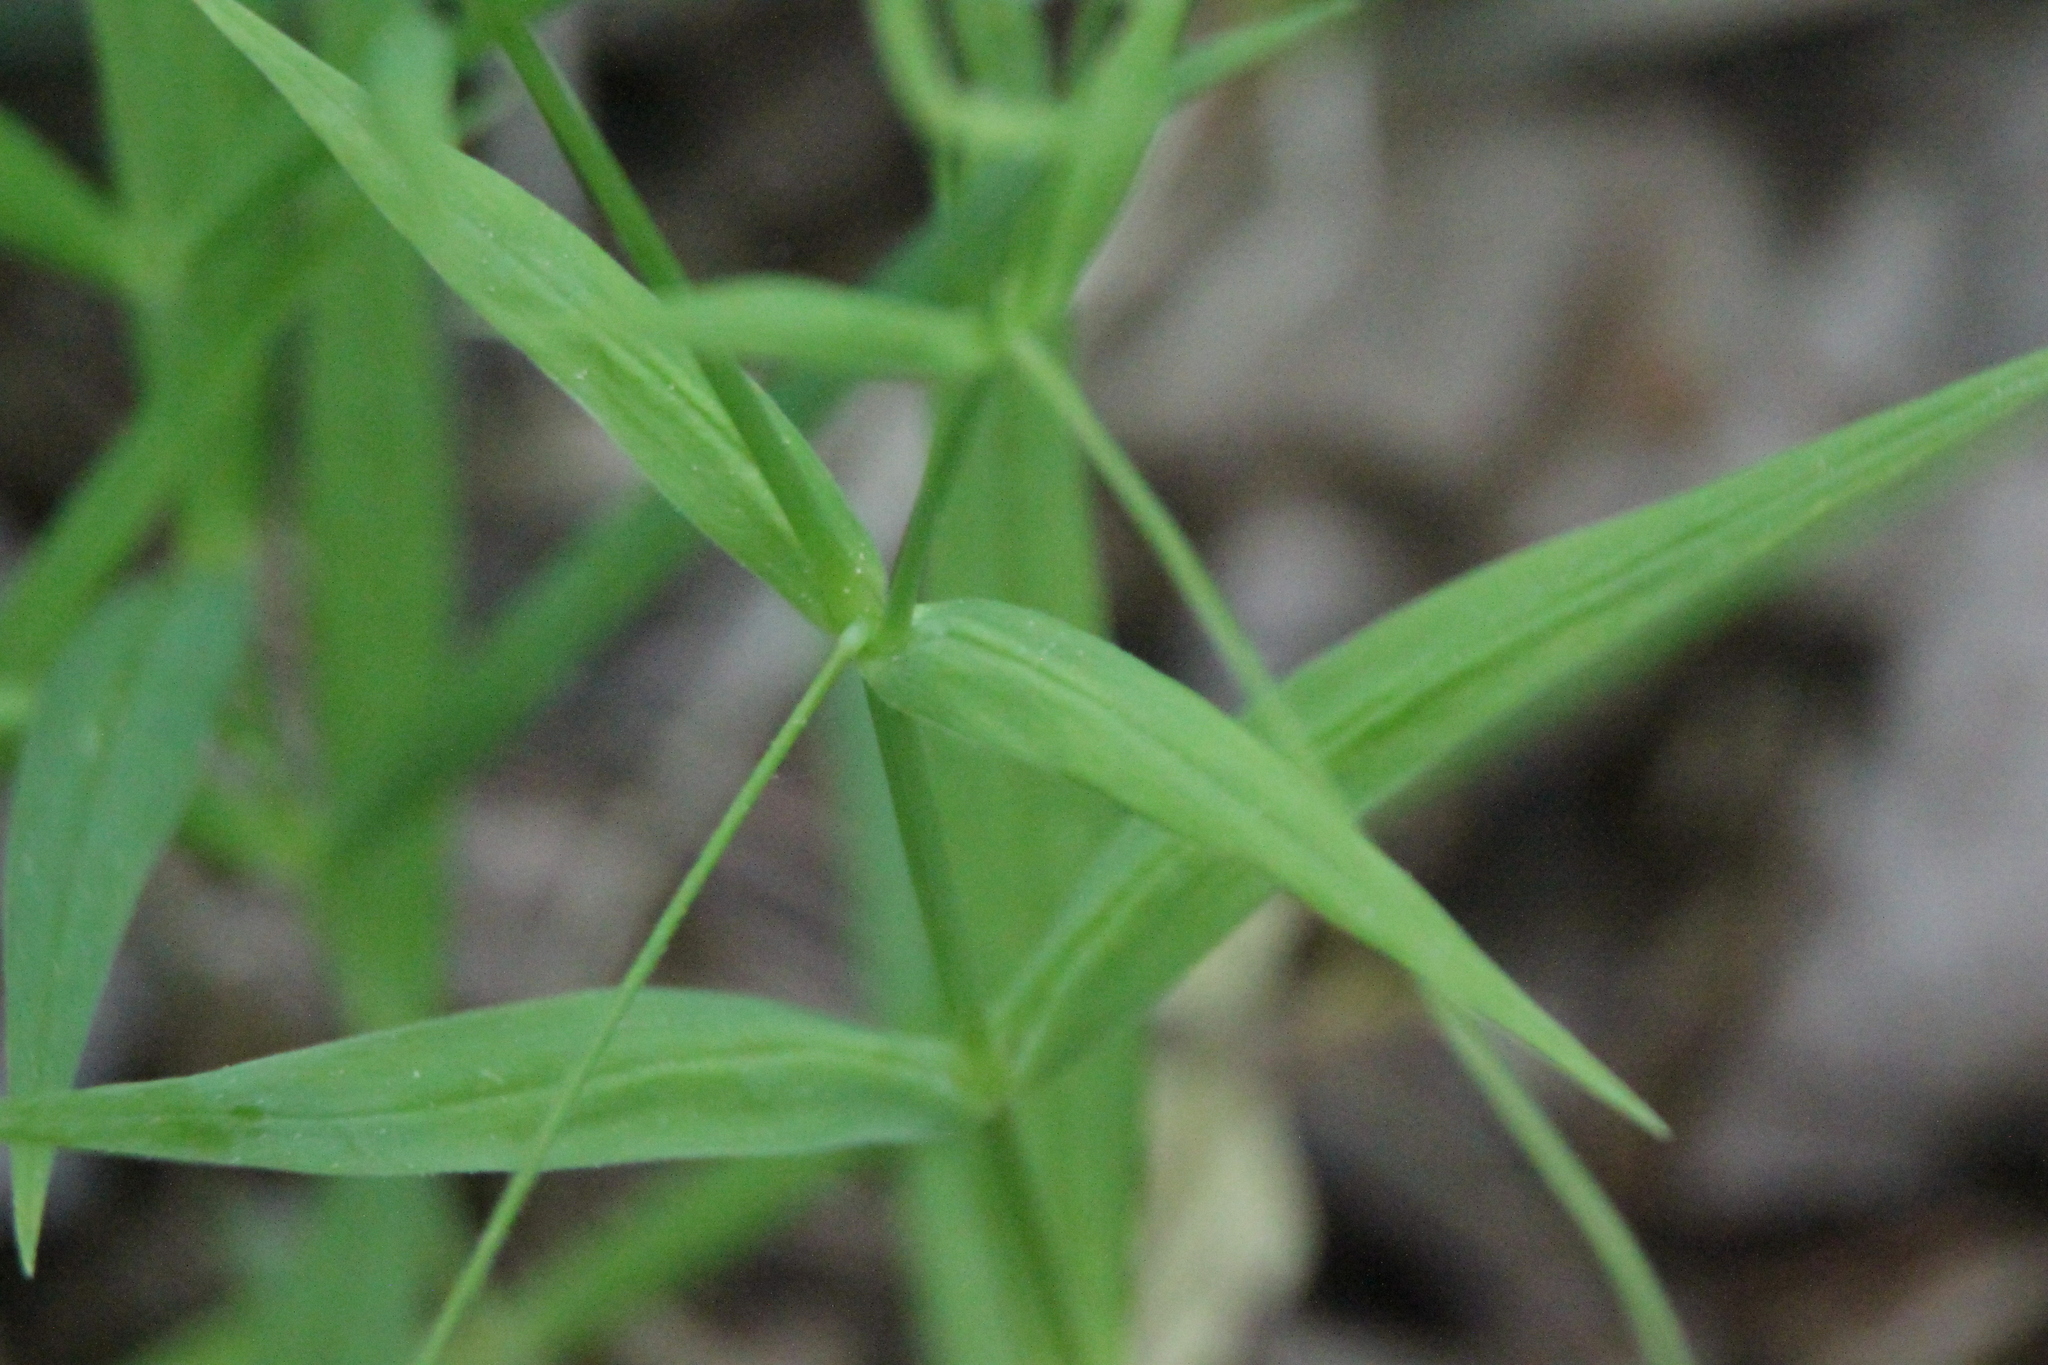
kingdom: Plantae
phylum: Tracheophyta
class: Magnoliopsida
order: Caryophyllales
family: Caryophyllaceae
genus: Rabelera
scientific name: Rabelera holostea
